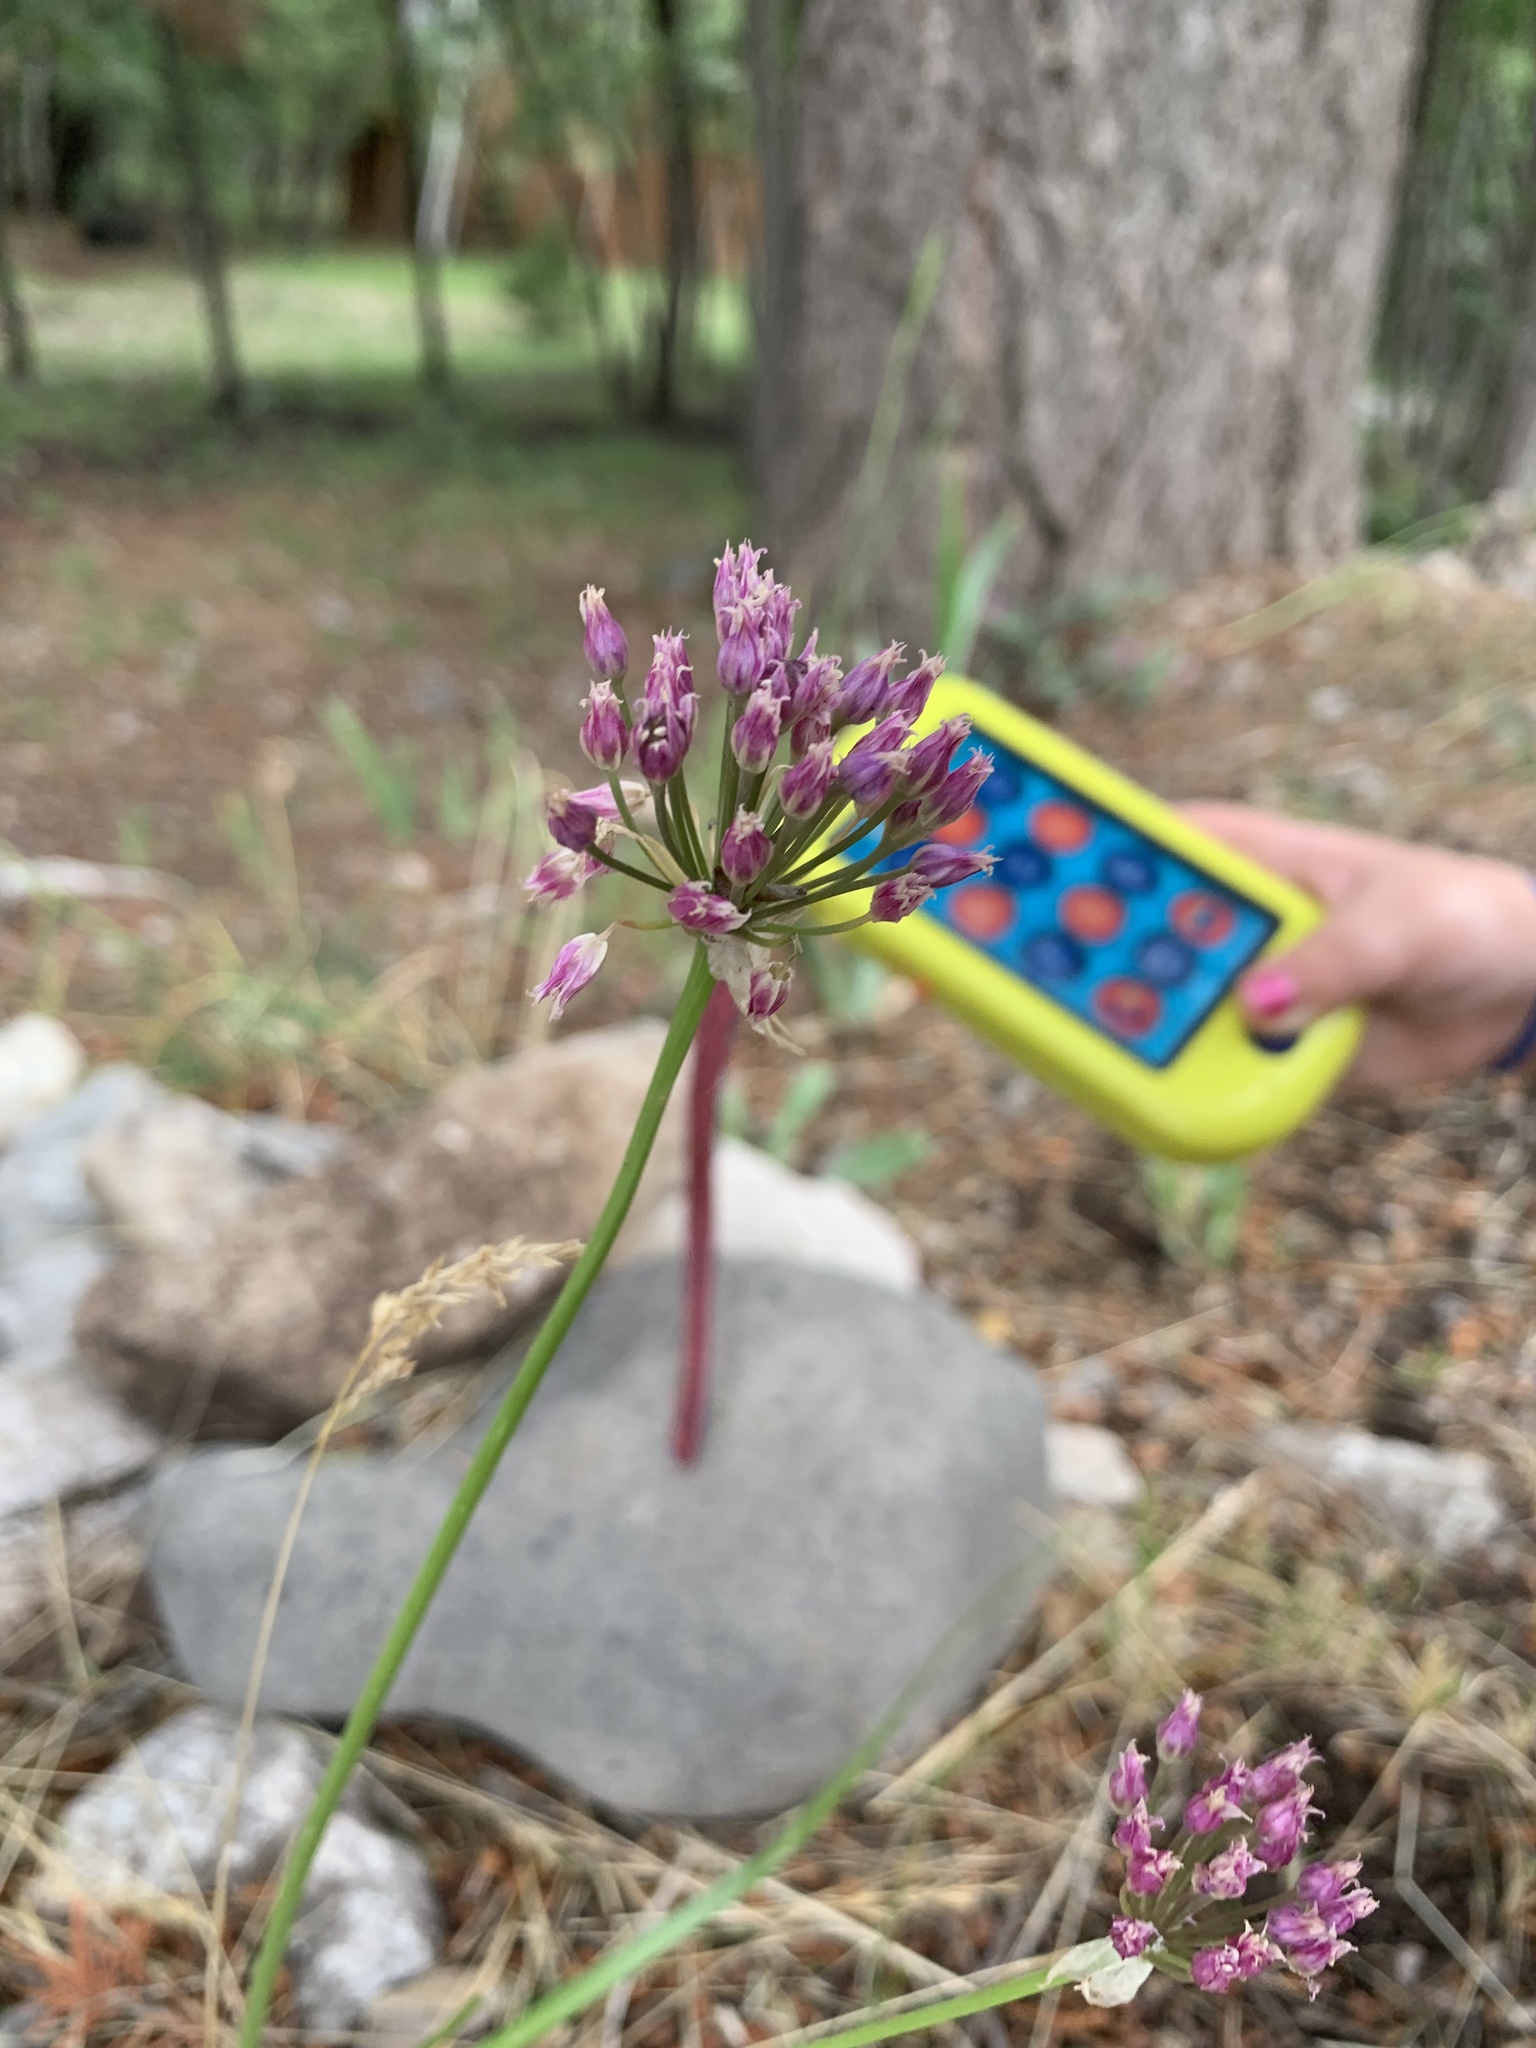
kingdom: Plantae
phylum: Tracheophyta
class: Liliopsida
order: Asparagales
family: Amaryllidaceae
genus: Allium
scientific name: Allium geyeri
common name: Geyer's onion
